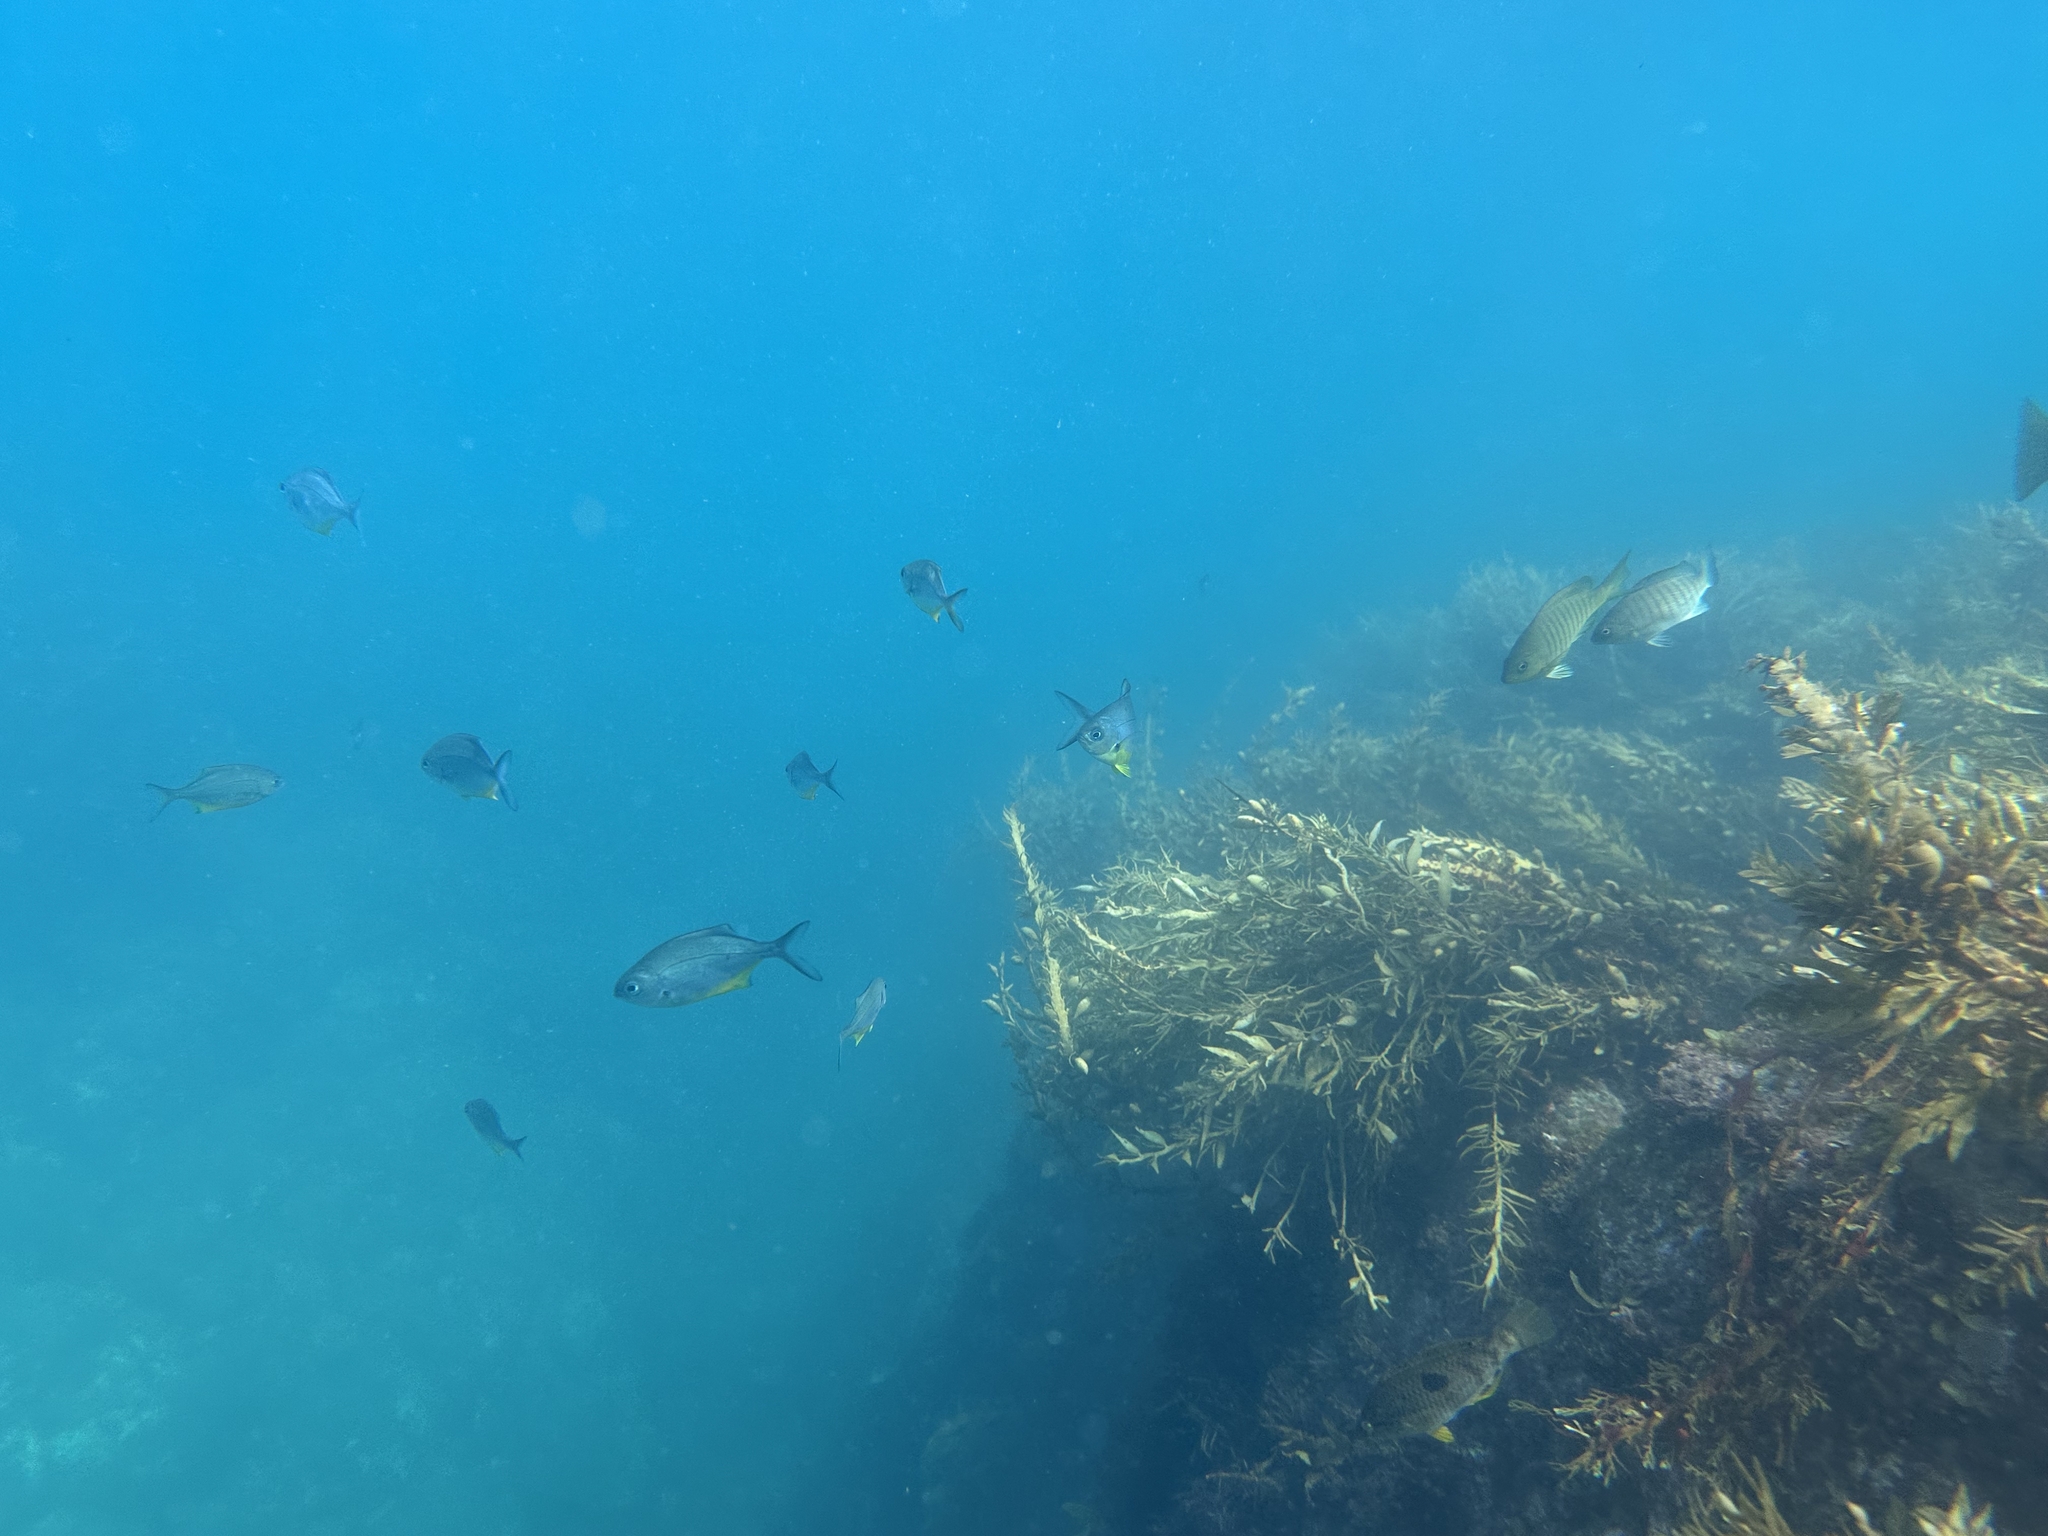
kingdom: Animalia
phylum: Chordata
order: Perciformes
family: Kyphosidae
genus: Scorpis
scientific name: Scorpis violacea
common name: Blue maomao
